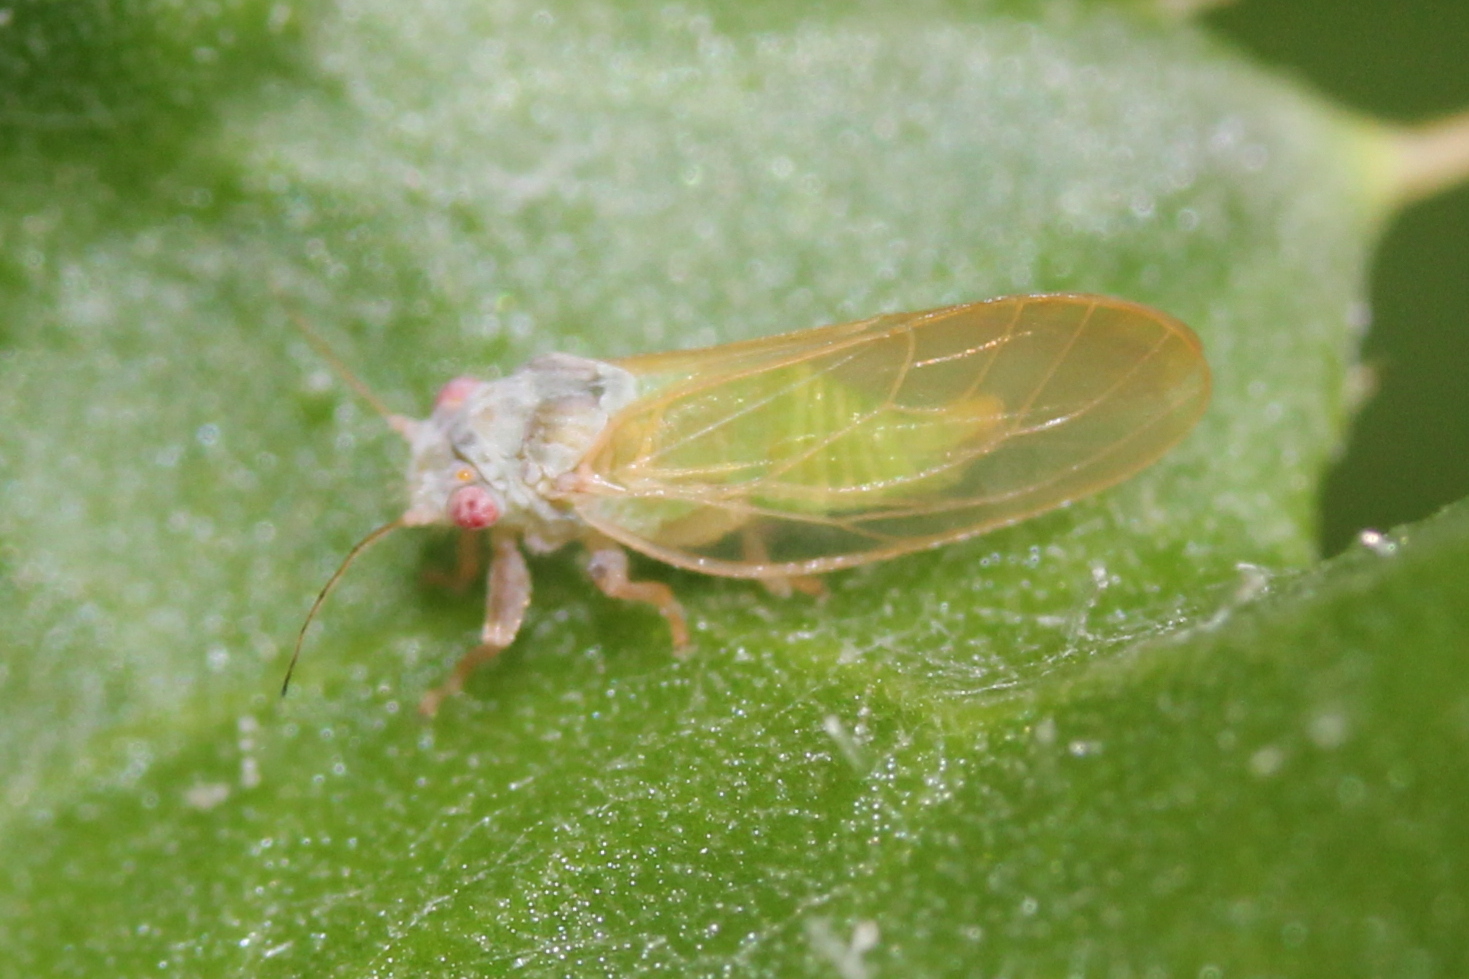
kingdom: Animalia
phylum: Arthropoda
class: Insecta
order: Hemiptera
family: Psyllidae
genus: Psylla
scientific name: Psylla buxi
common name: Boxwood psyllid
